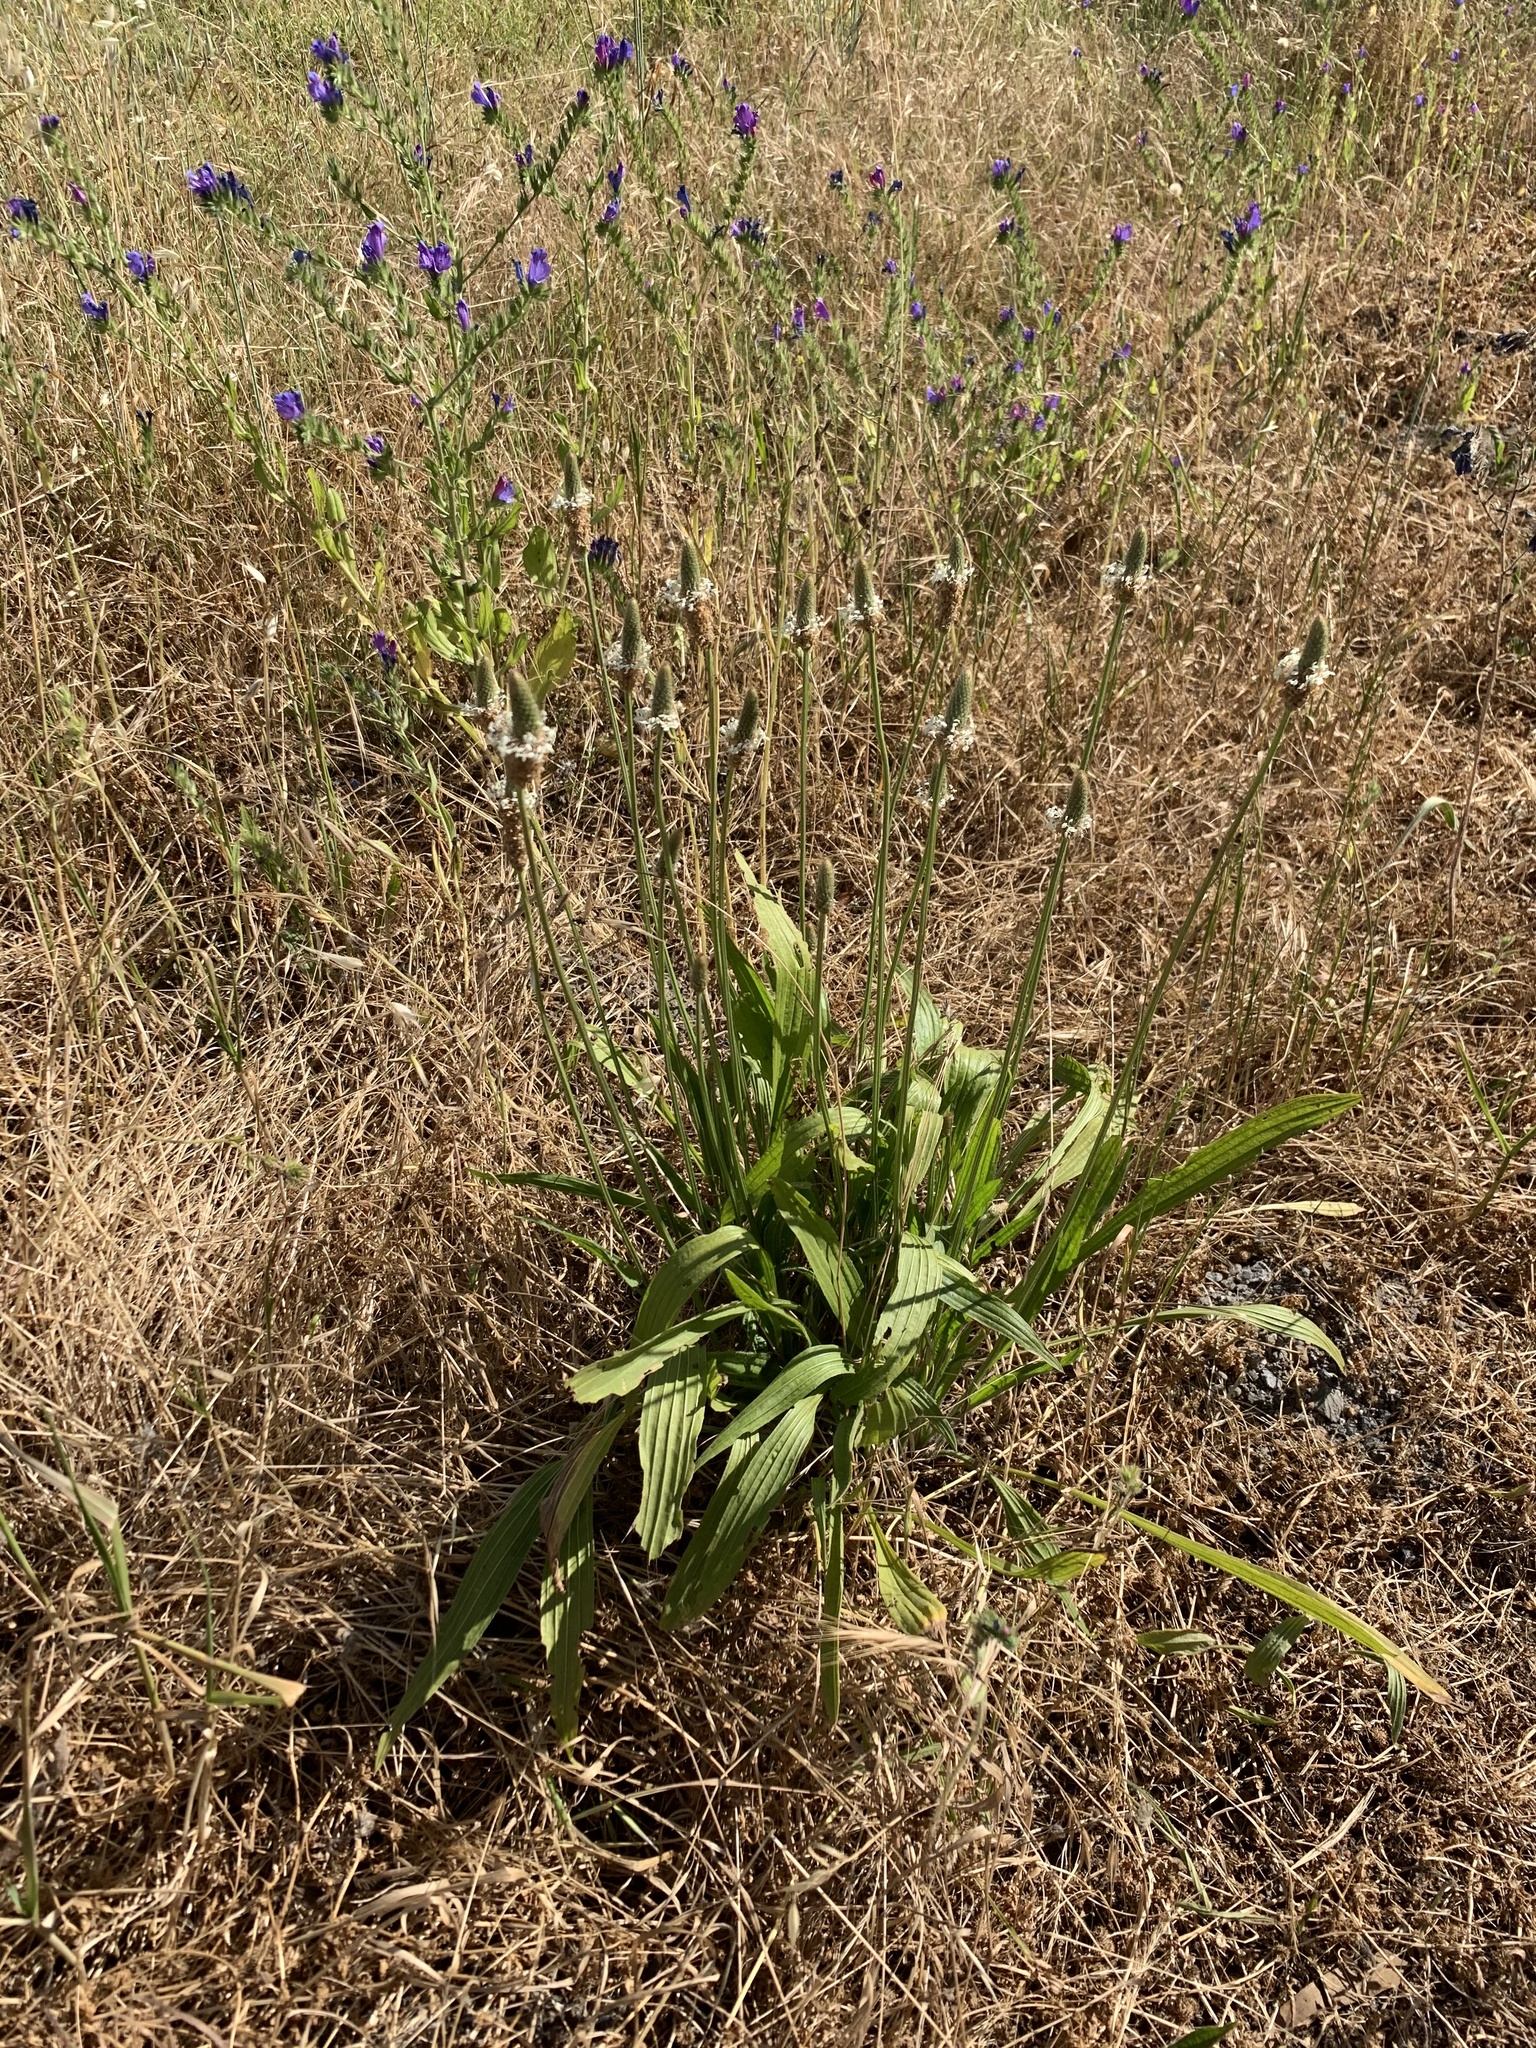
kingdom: Plantae
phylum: Tracheophyta
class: Magnoliopsida
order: Lamiales
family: Plantaginaceae
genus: Plantago
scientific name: Plantago lanceolata
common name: Ribwort plantain
